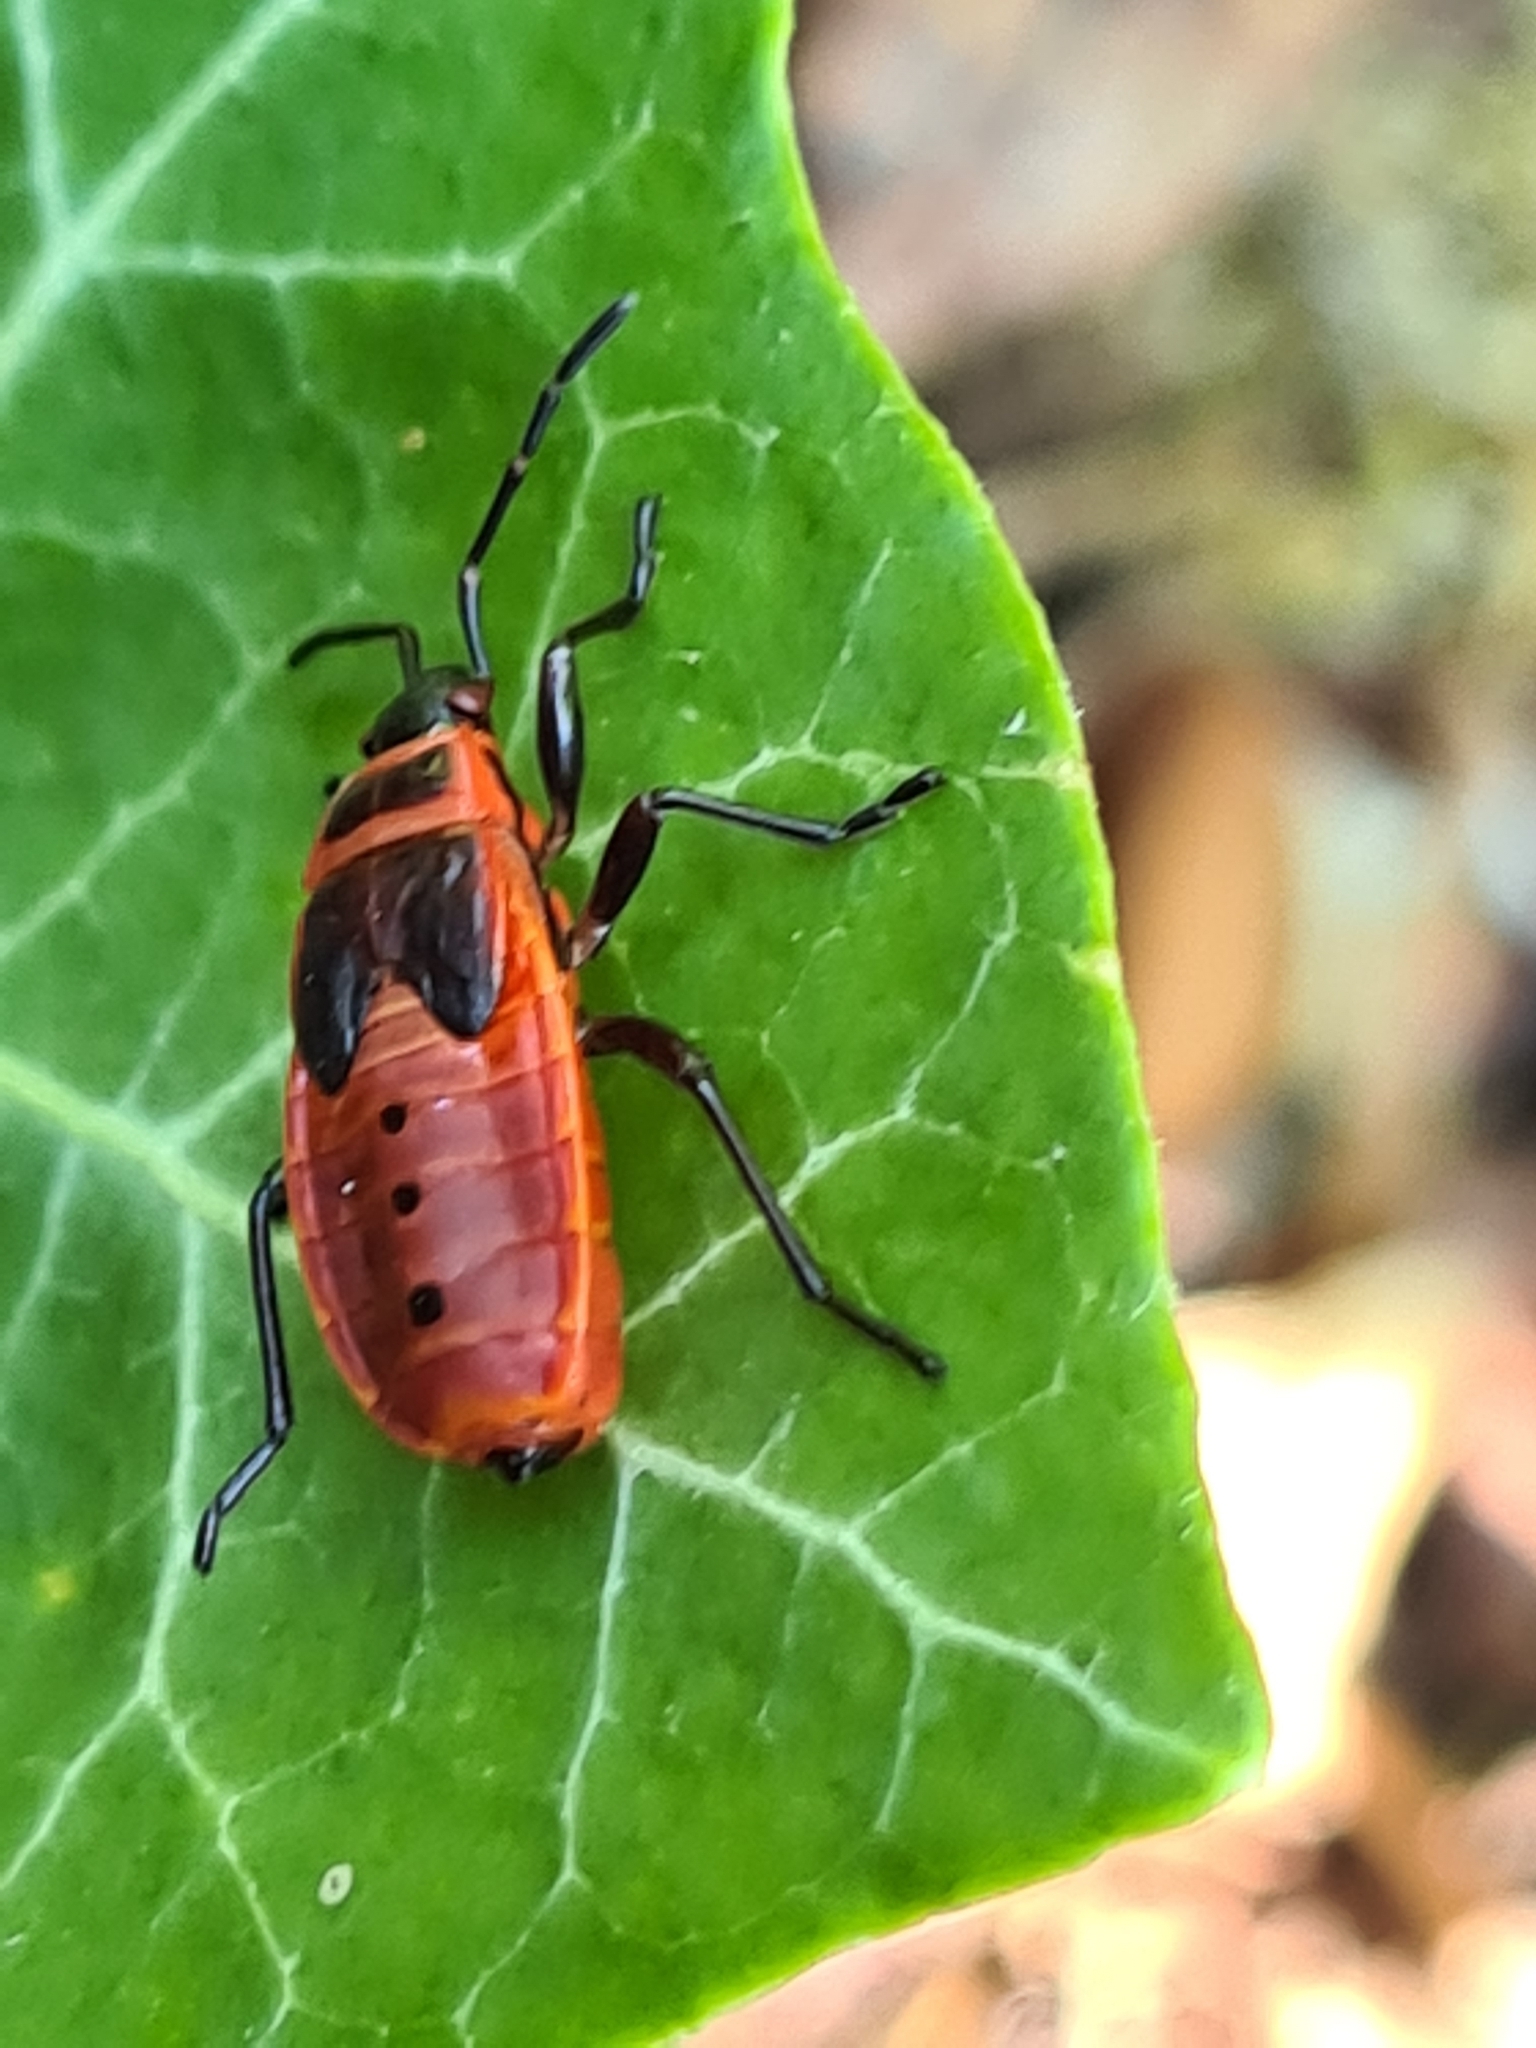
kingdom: Animalia
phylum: Arthropoda
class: Insecta
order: Hemiptera
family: Pyrrhocoridae
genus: Pyrrhocoris
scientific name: Pyrrhocoris apterus
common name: Firebug
